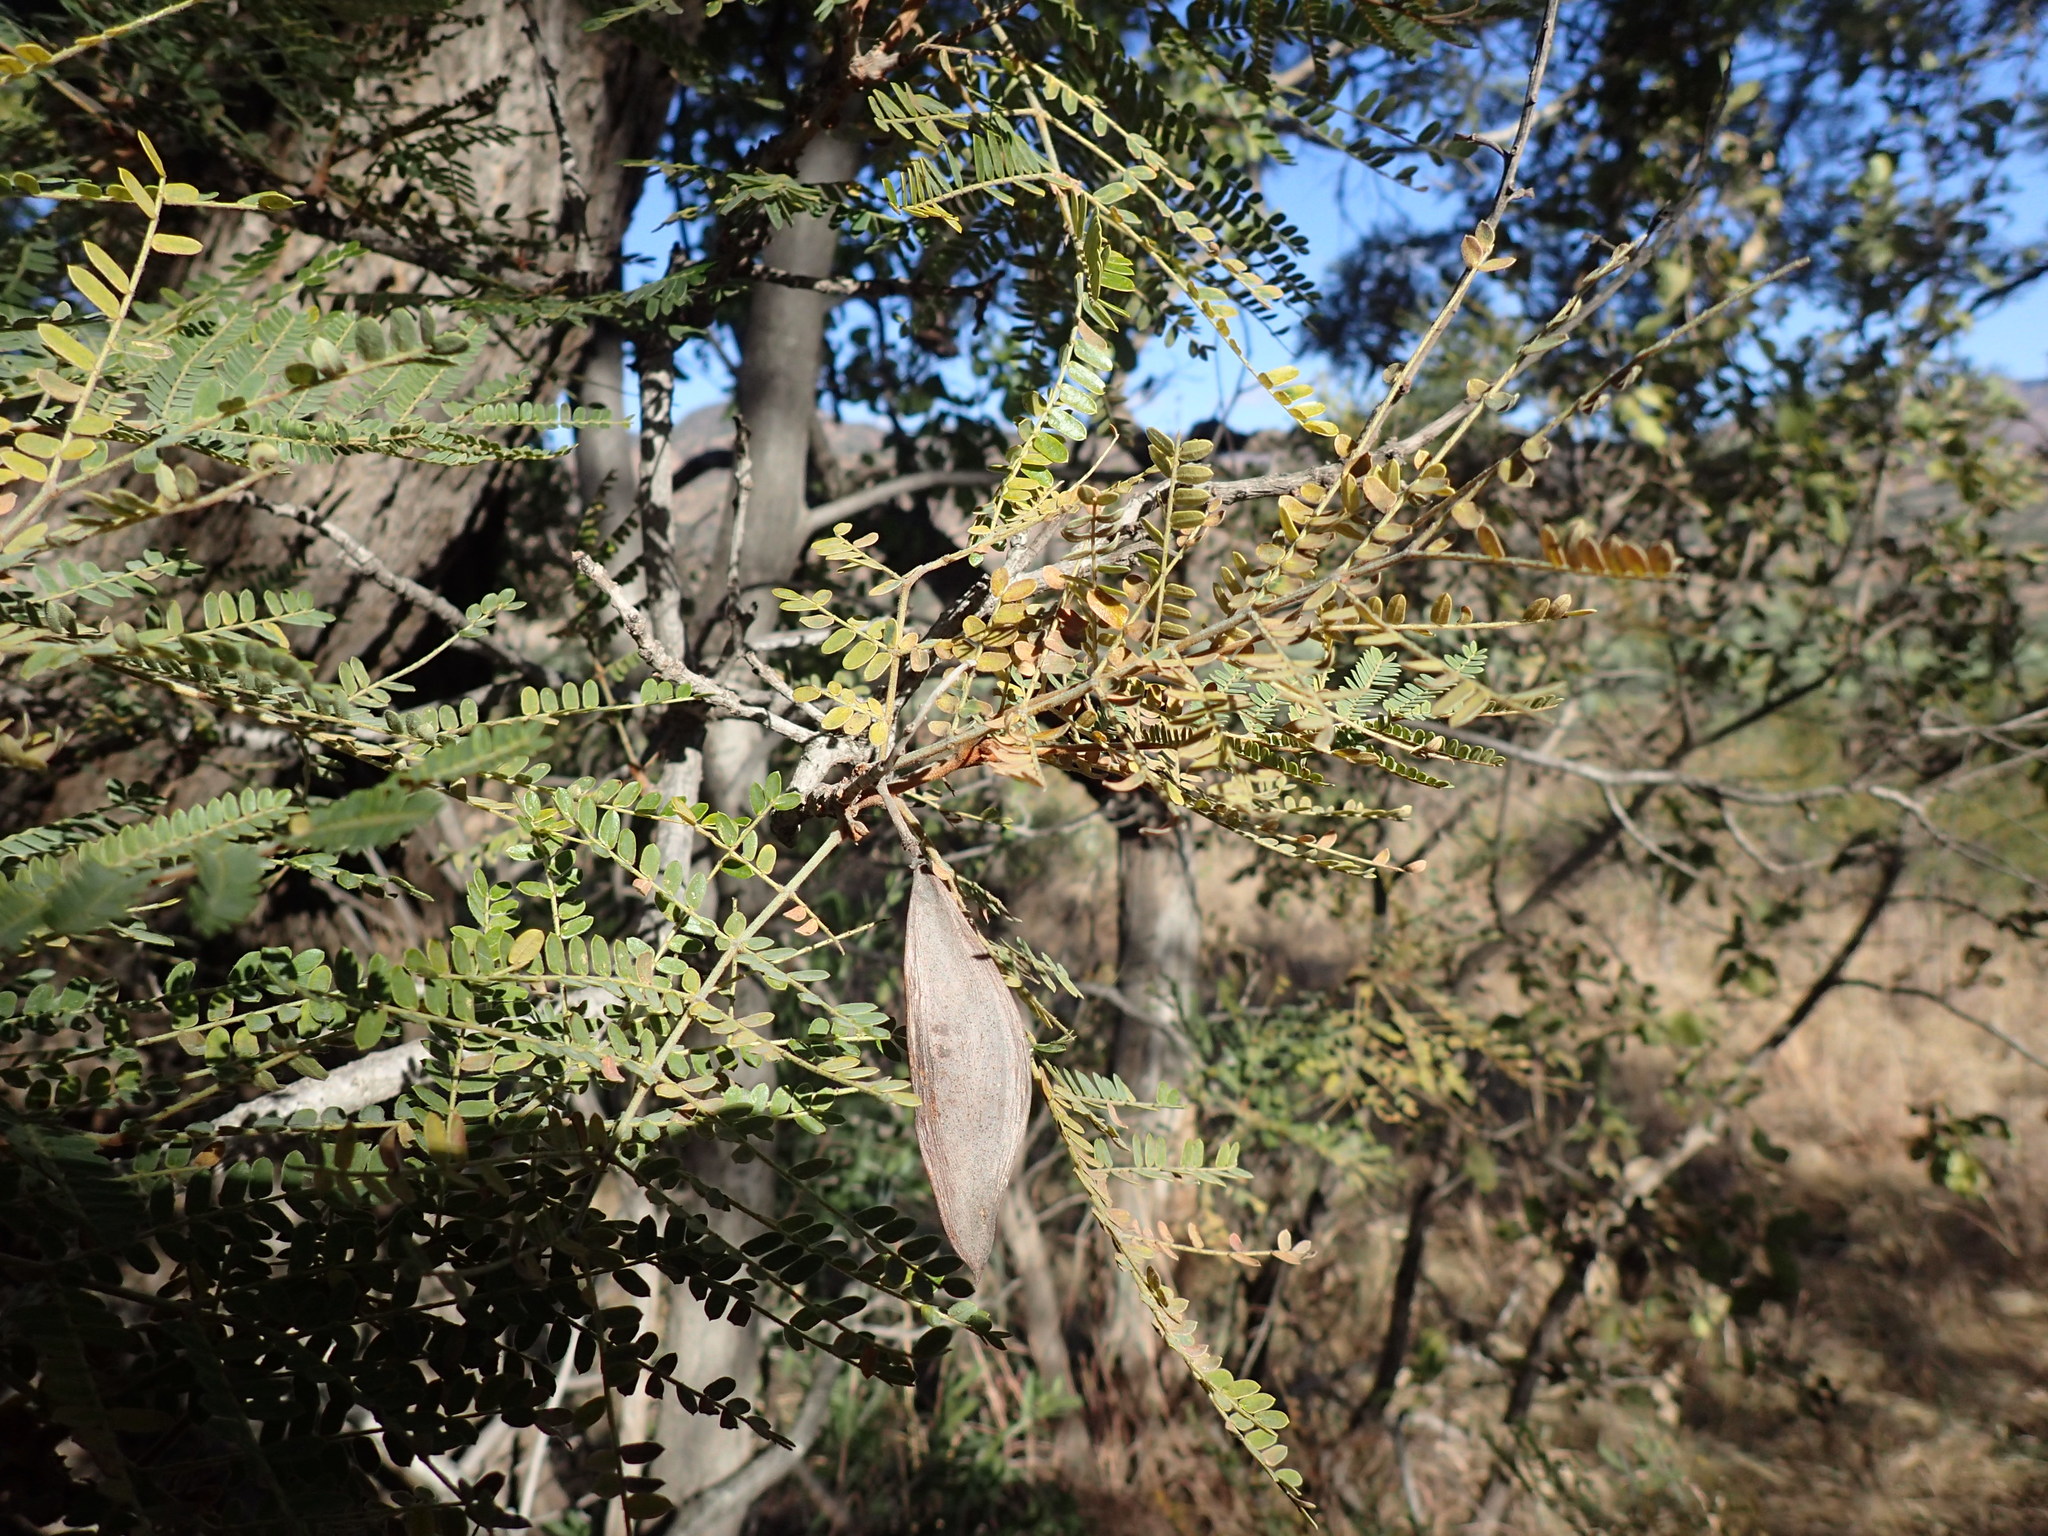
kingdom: Plantae
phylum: Tracheophyta
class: Magnoliopsida
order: Fabales
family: Fabaceae
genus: Peltophorum
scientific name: Peltophorum africanum
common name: African black wattle
